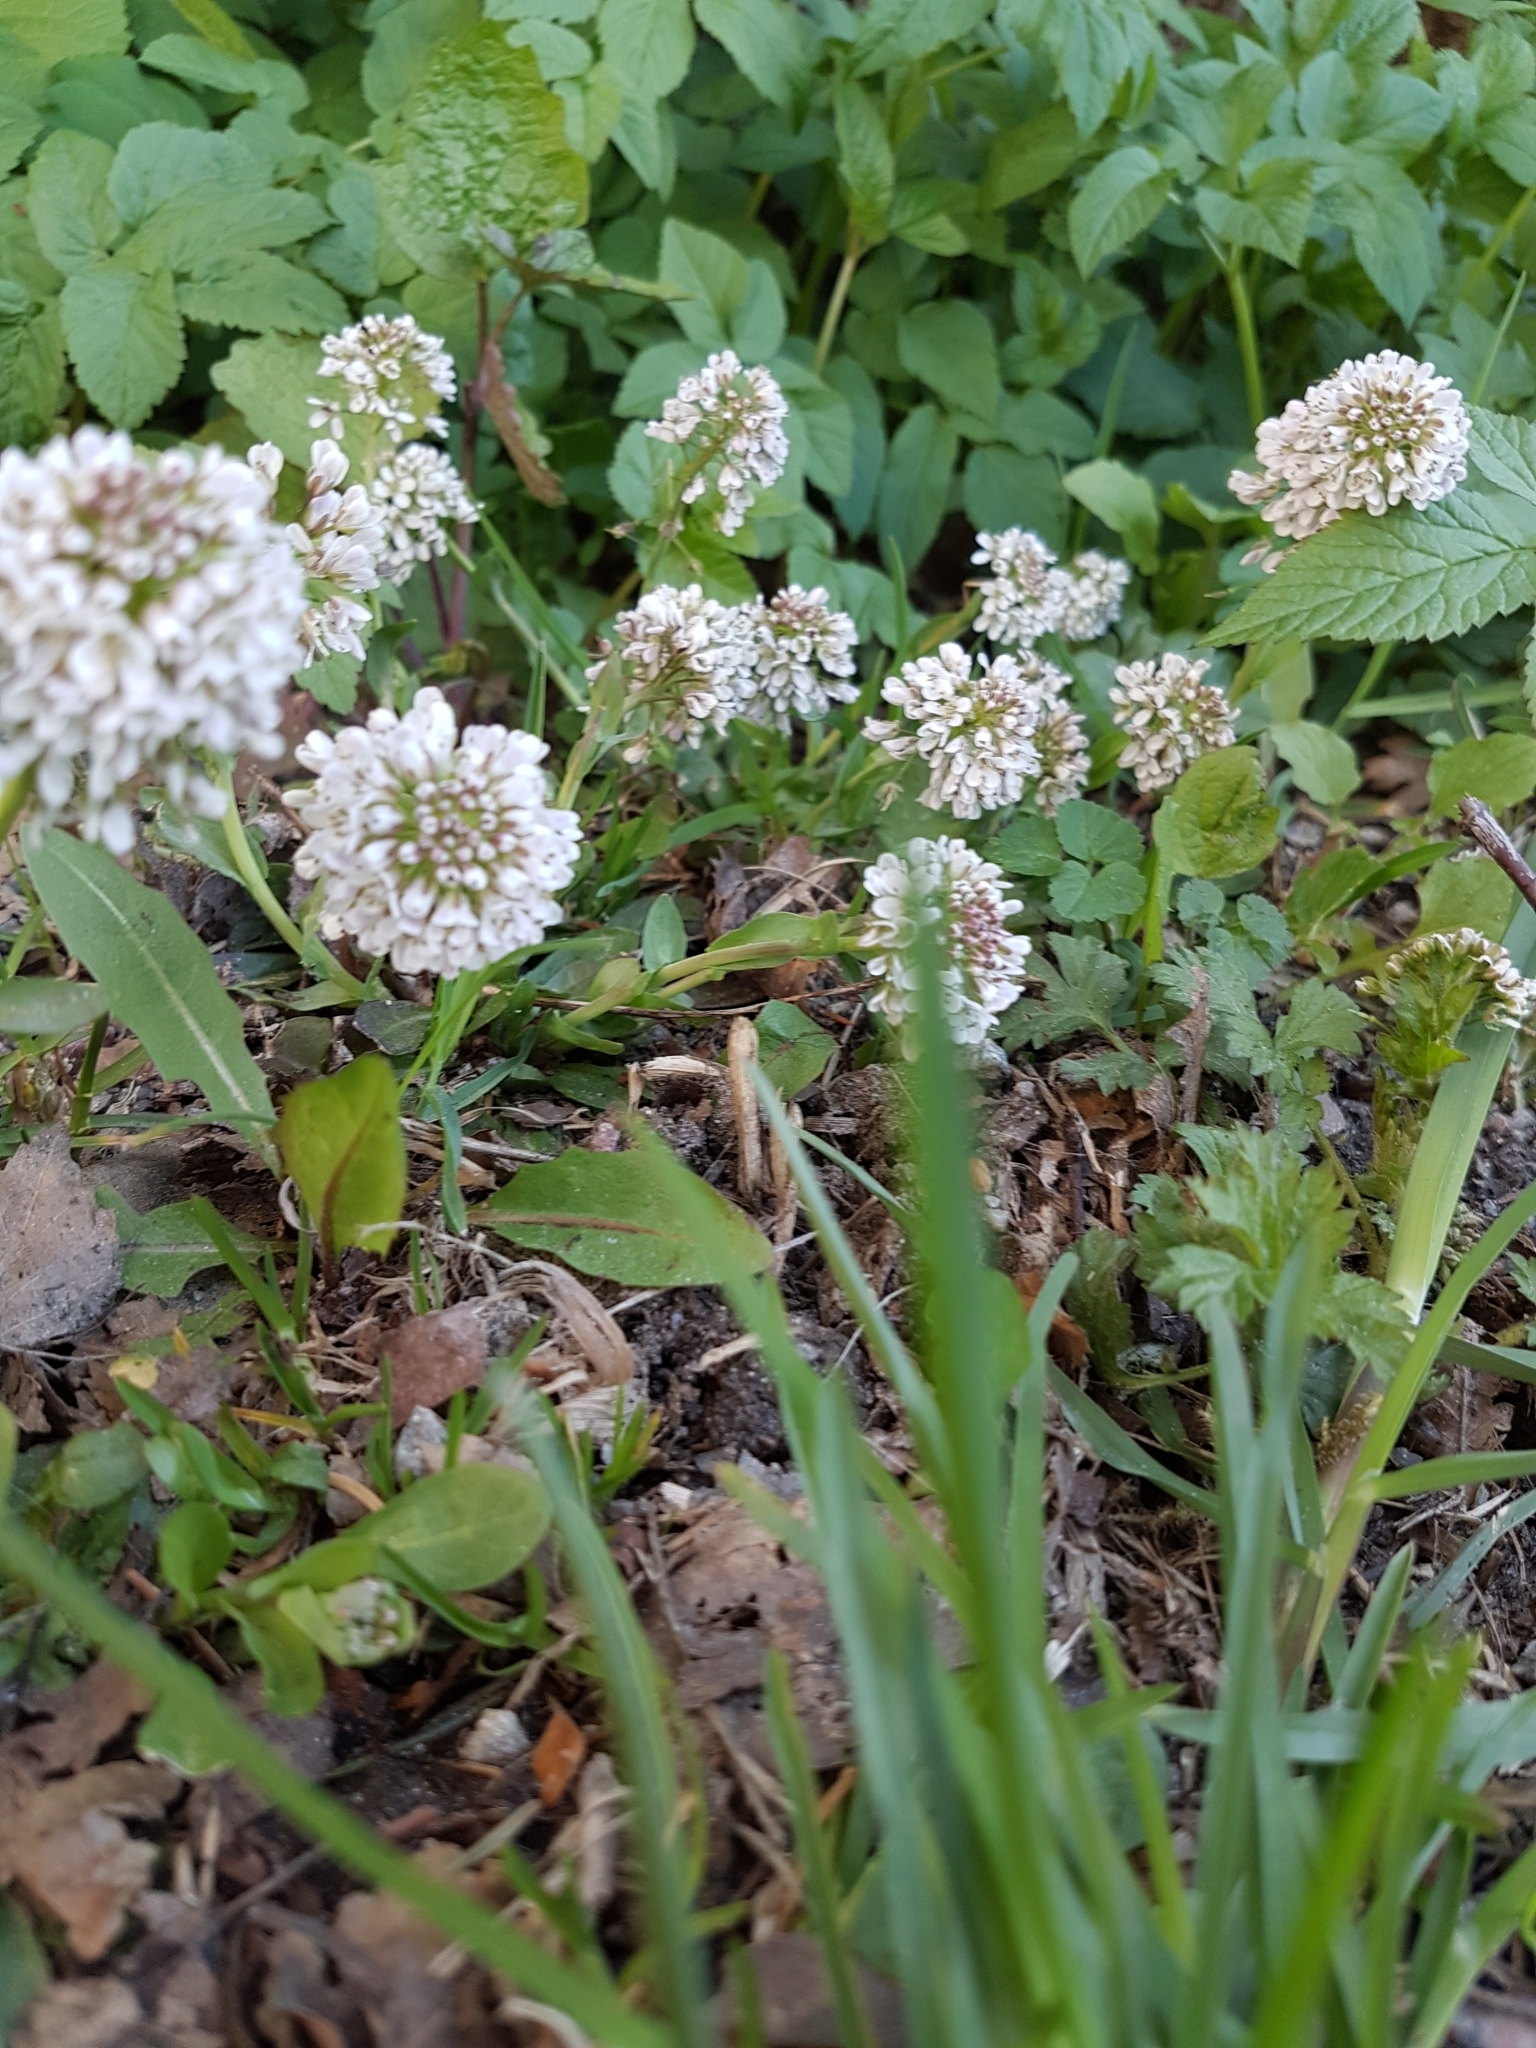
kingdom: Plantae
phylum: Tracheophyta
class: Magnoliopsida
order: Brassicales
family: Brassicaceae
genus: Noccaea
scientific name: Noccaea caerulescens
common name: Alpine pennycress
